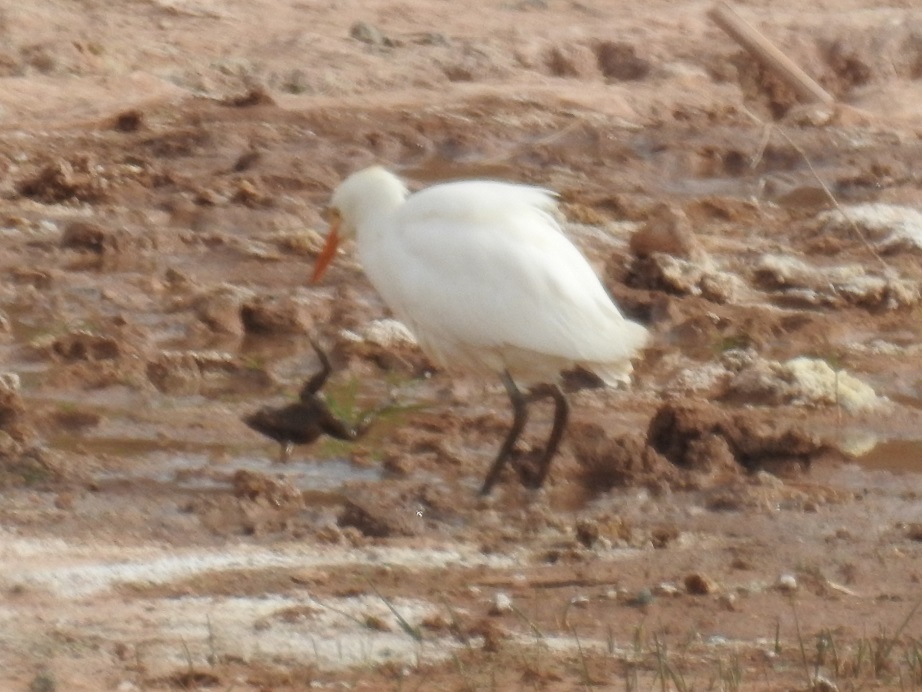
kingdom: Animalia
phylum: Chordata
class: Aves
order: Pelecaniformes
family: Ardeidae
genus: Bubulcus
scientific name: Bubulcus ibis
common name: Cattle egret
